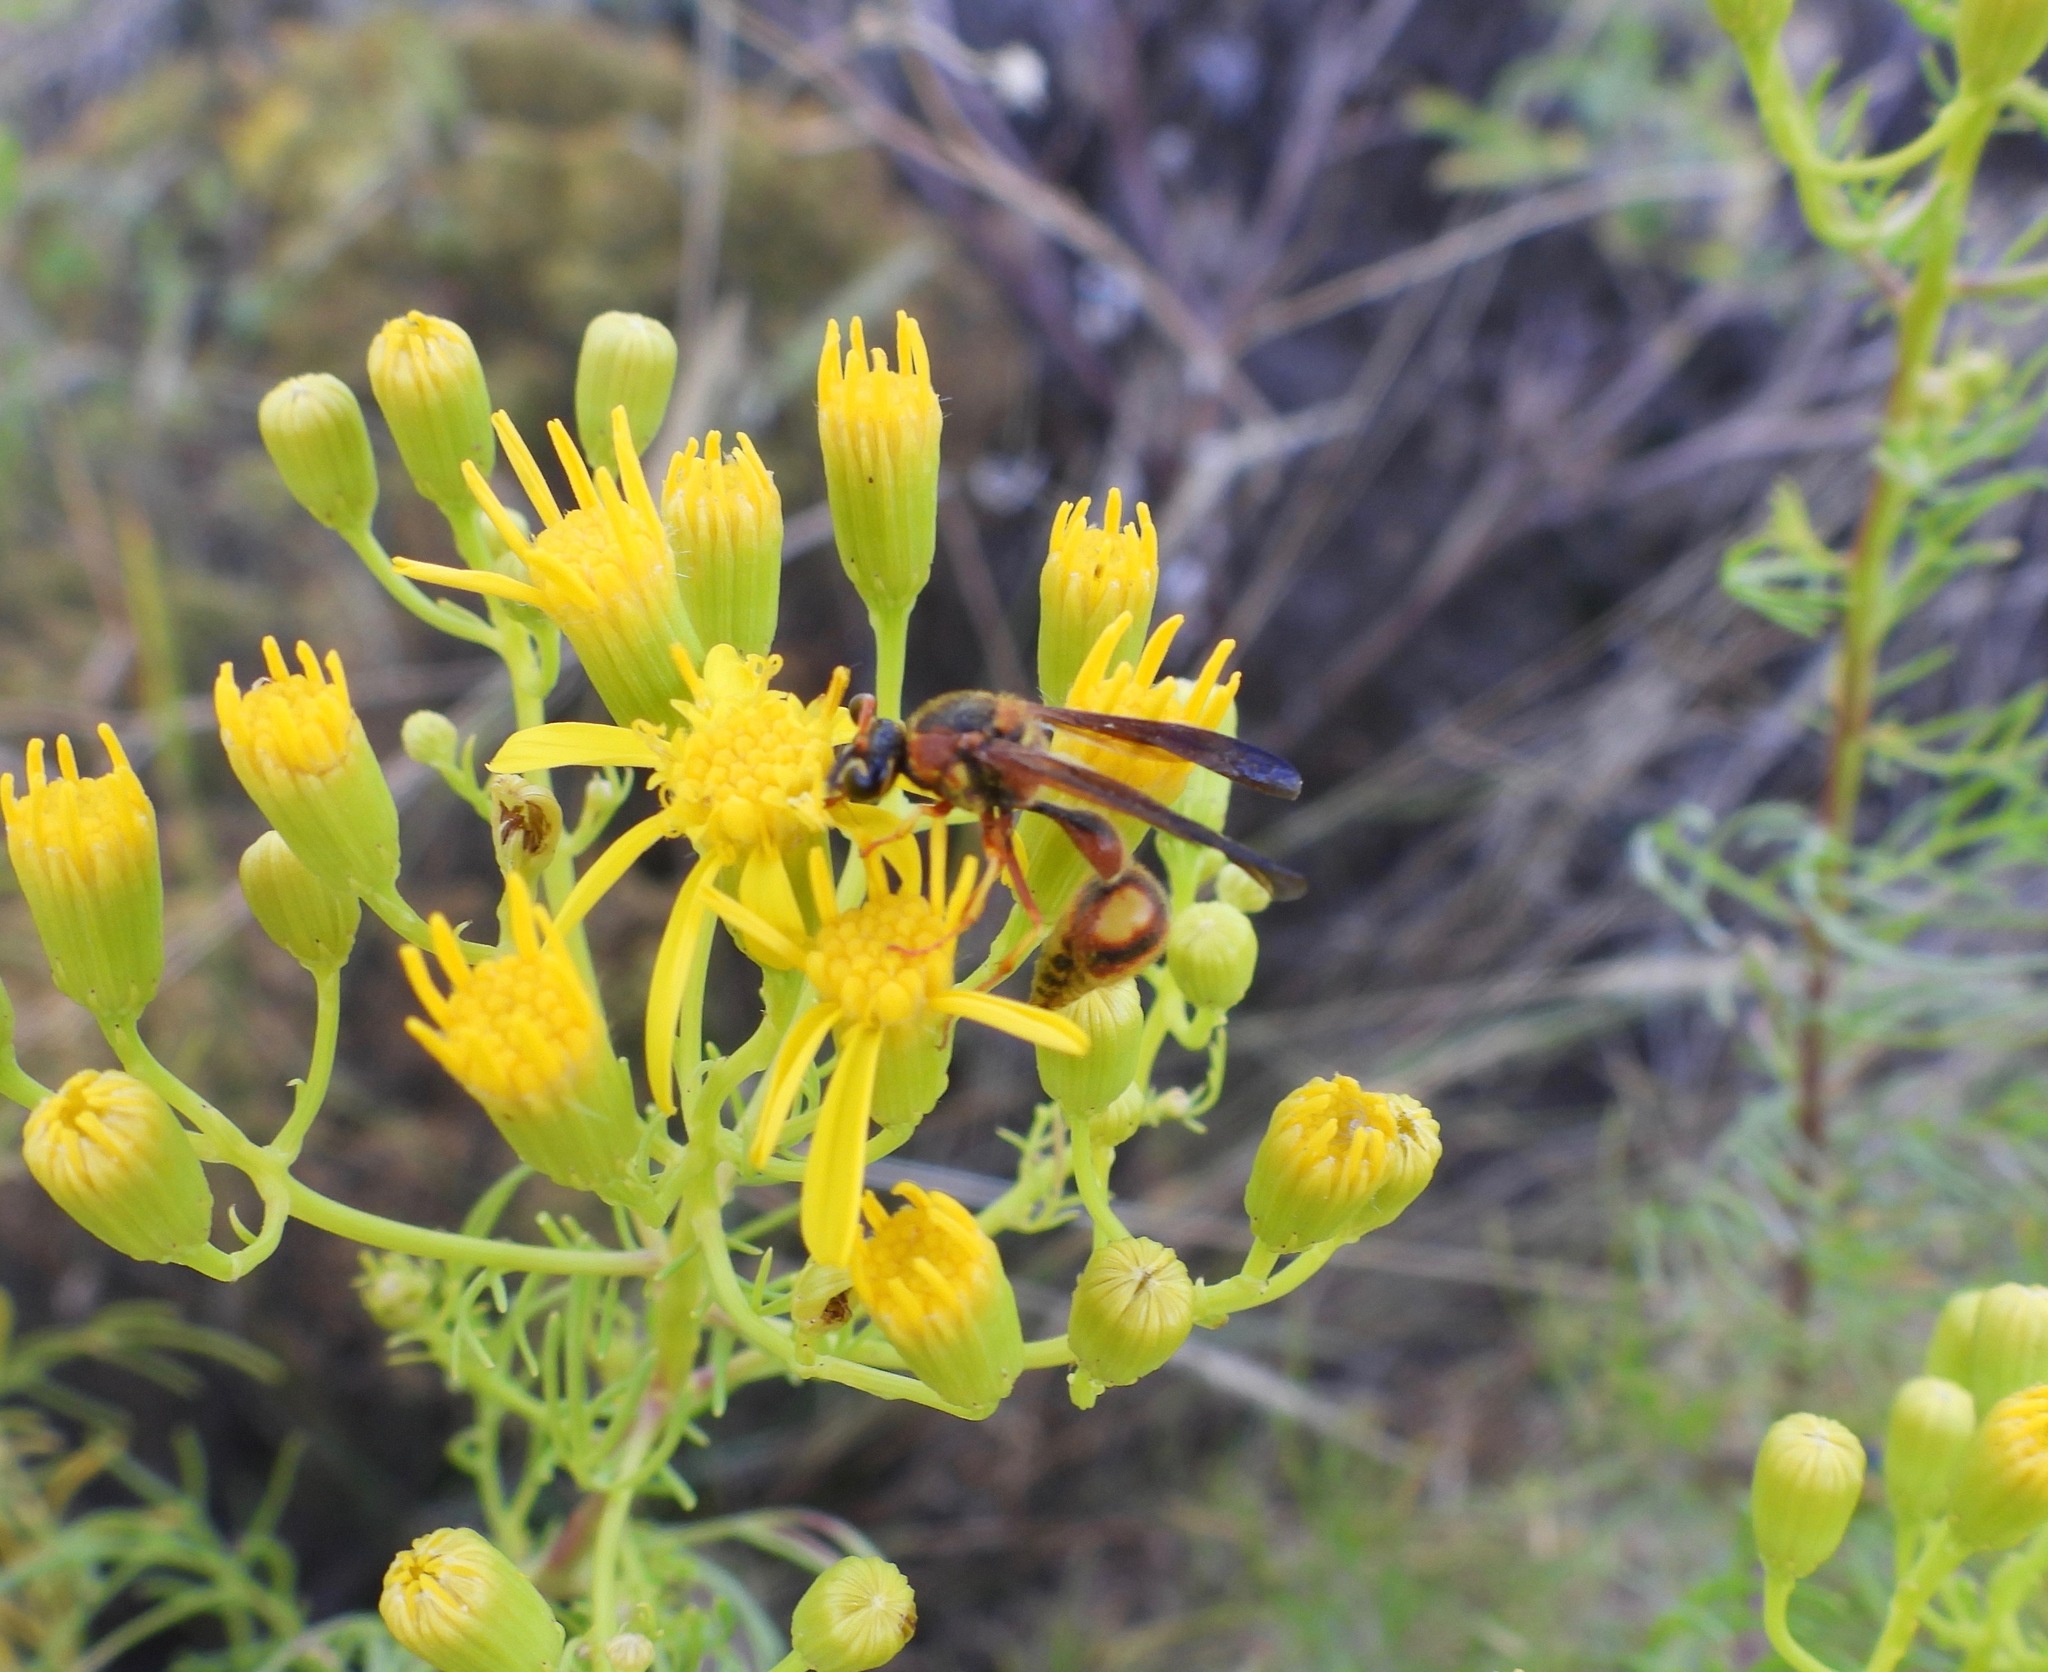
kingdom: Animalia
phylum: Arthropoda
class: Insecta
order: Hymenoptera
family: Vespidae
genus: Eumenes
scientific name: Eumenes bollii
